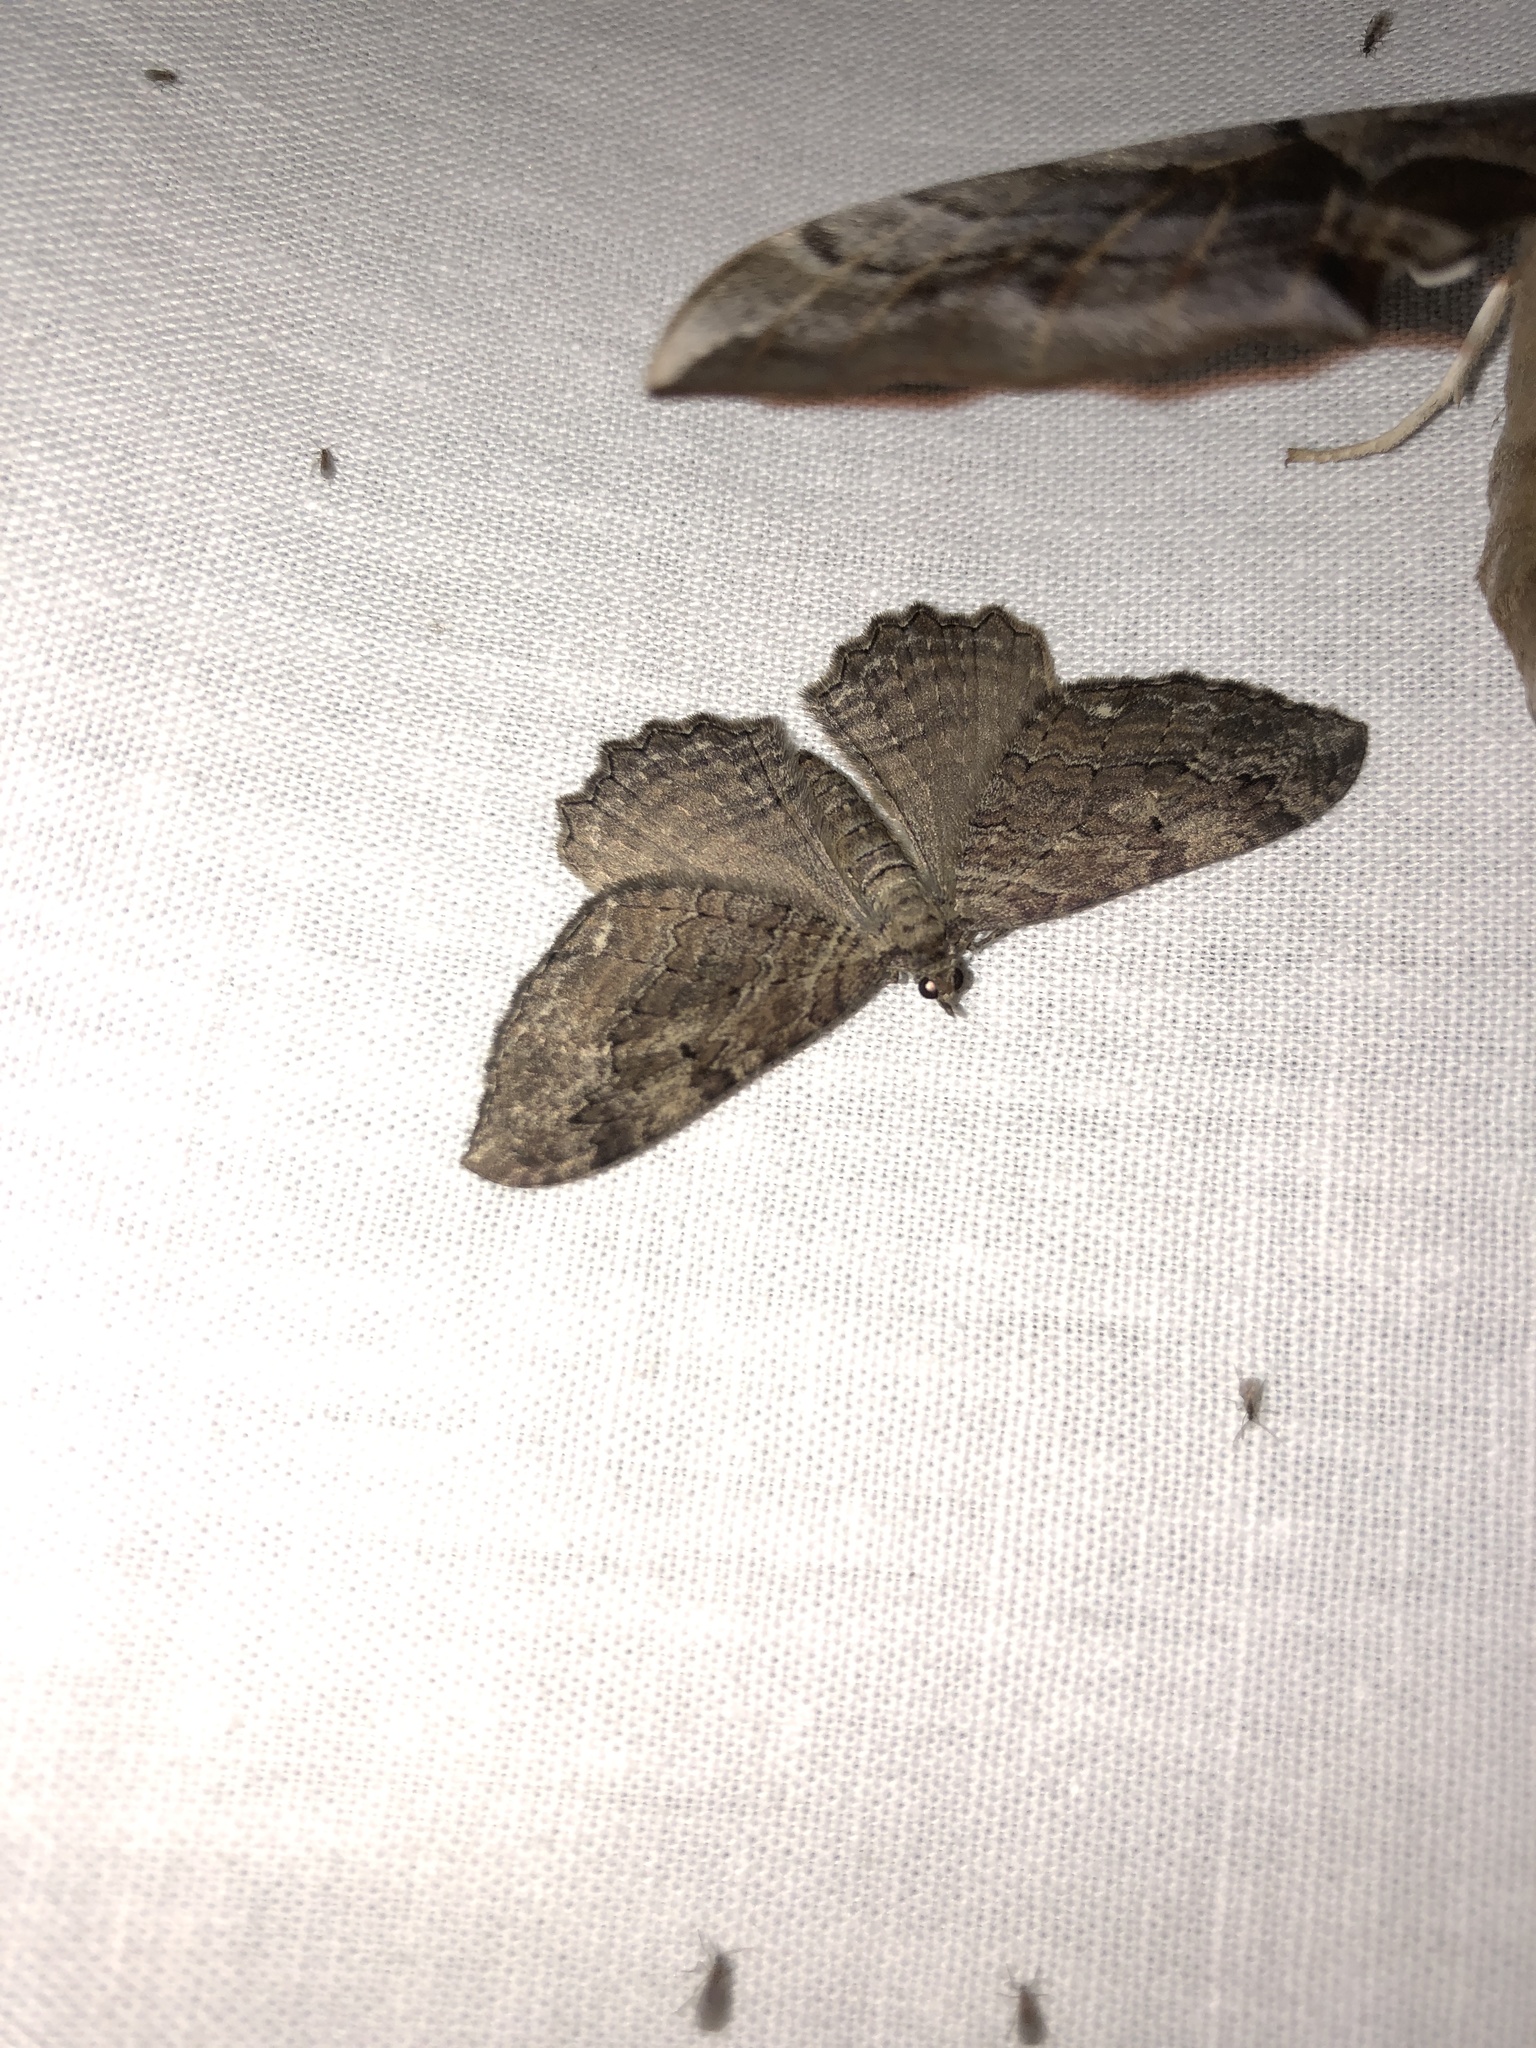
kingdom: Animalia
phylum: Arthropoda
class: Insecta
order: Lepidoptera
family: Geometridae
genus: Rheumaptera
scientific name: Rheumaptera
